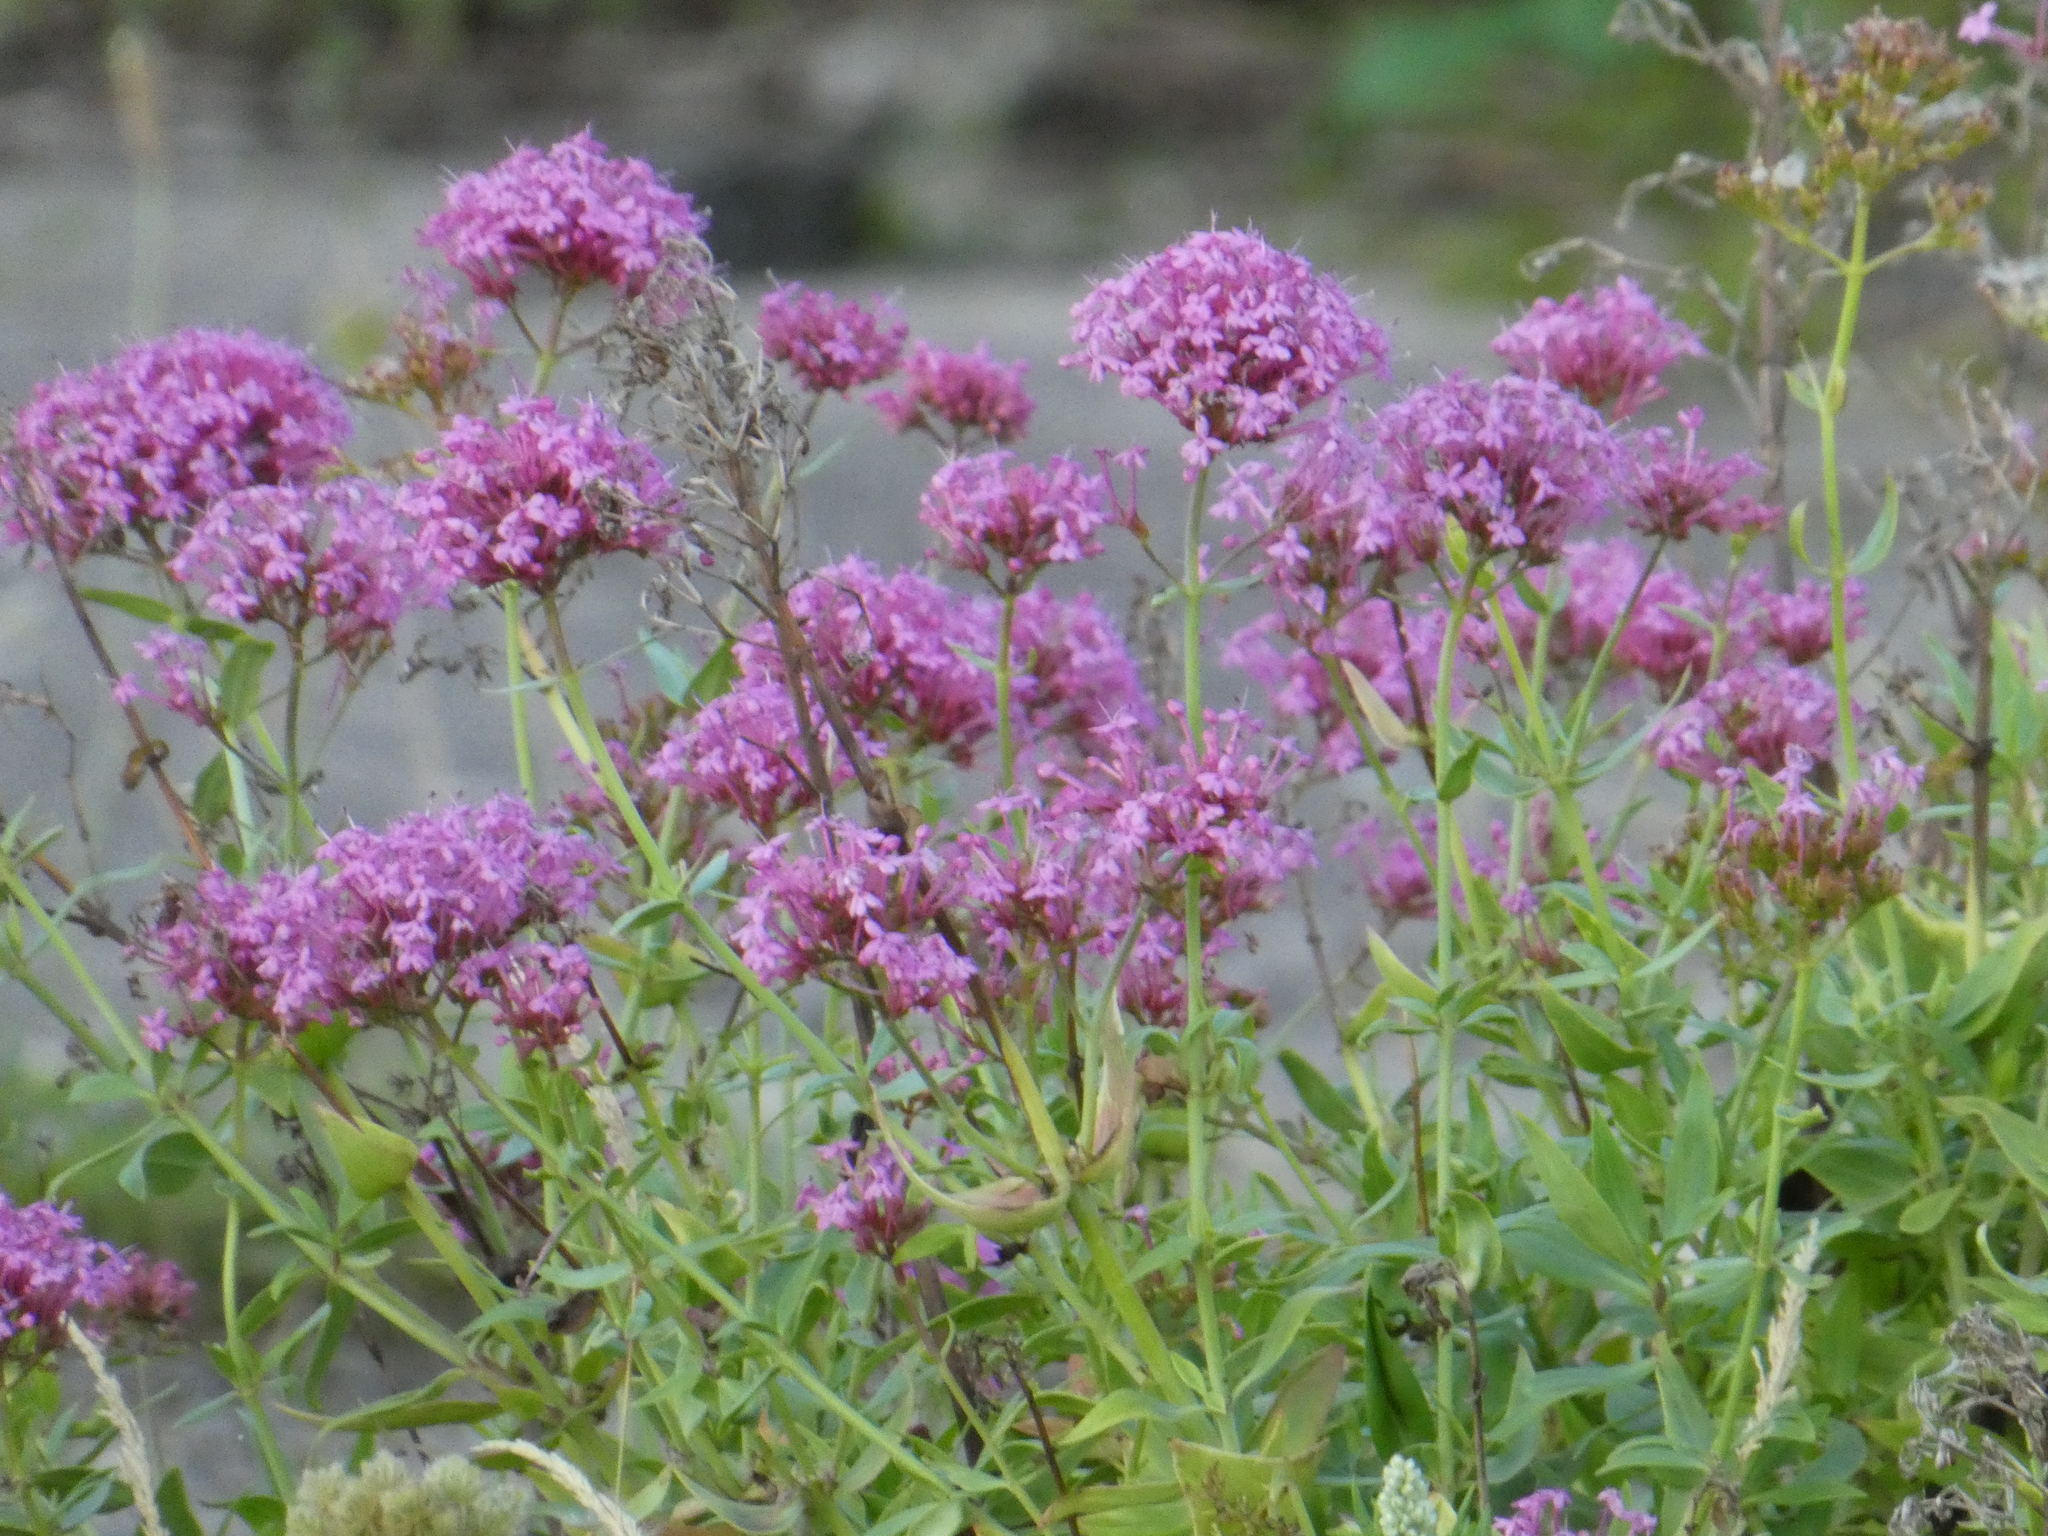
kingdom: Plantae
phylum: Tracheophyta
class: Magnoliopsida
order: Dipsacales
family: Caprifoliaceae
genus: Centranthus
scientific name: Centranthus ruber
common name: Red valerian
